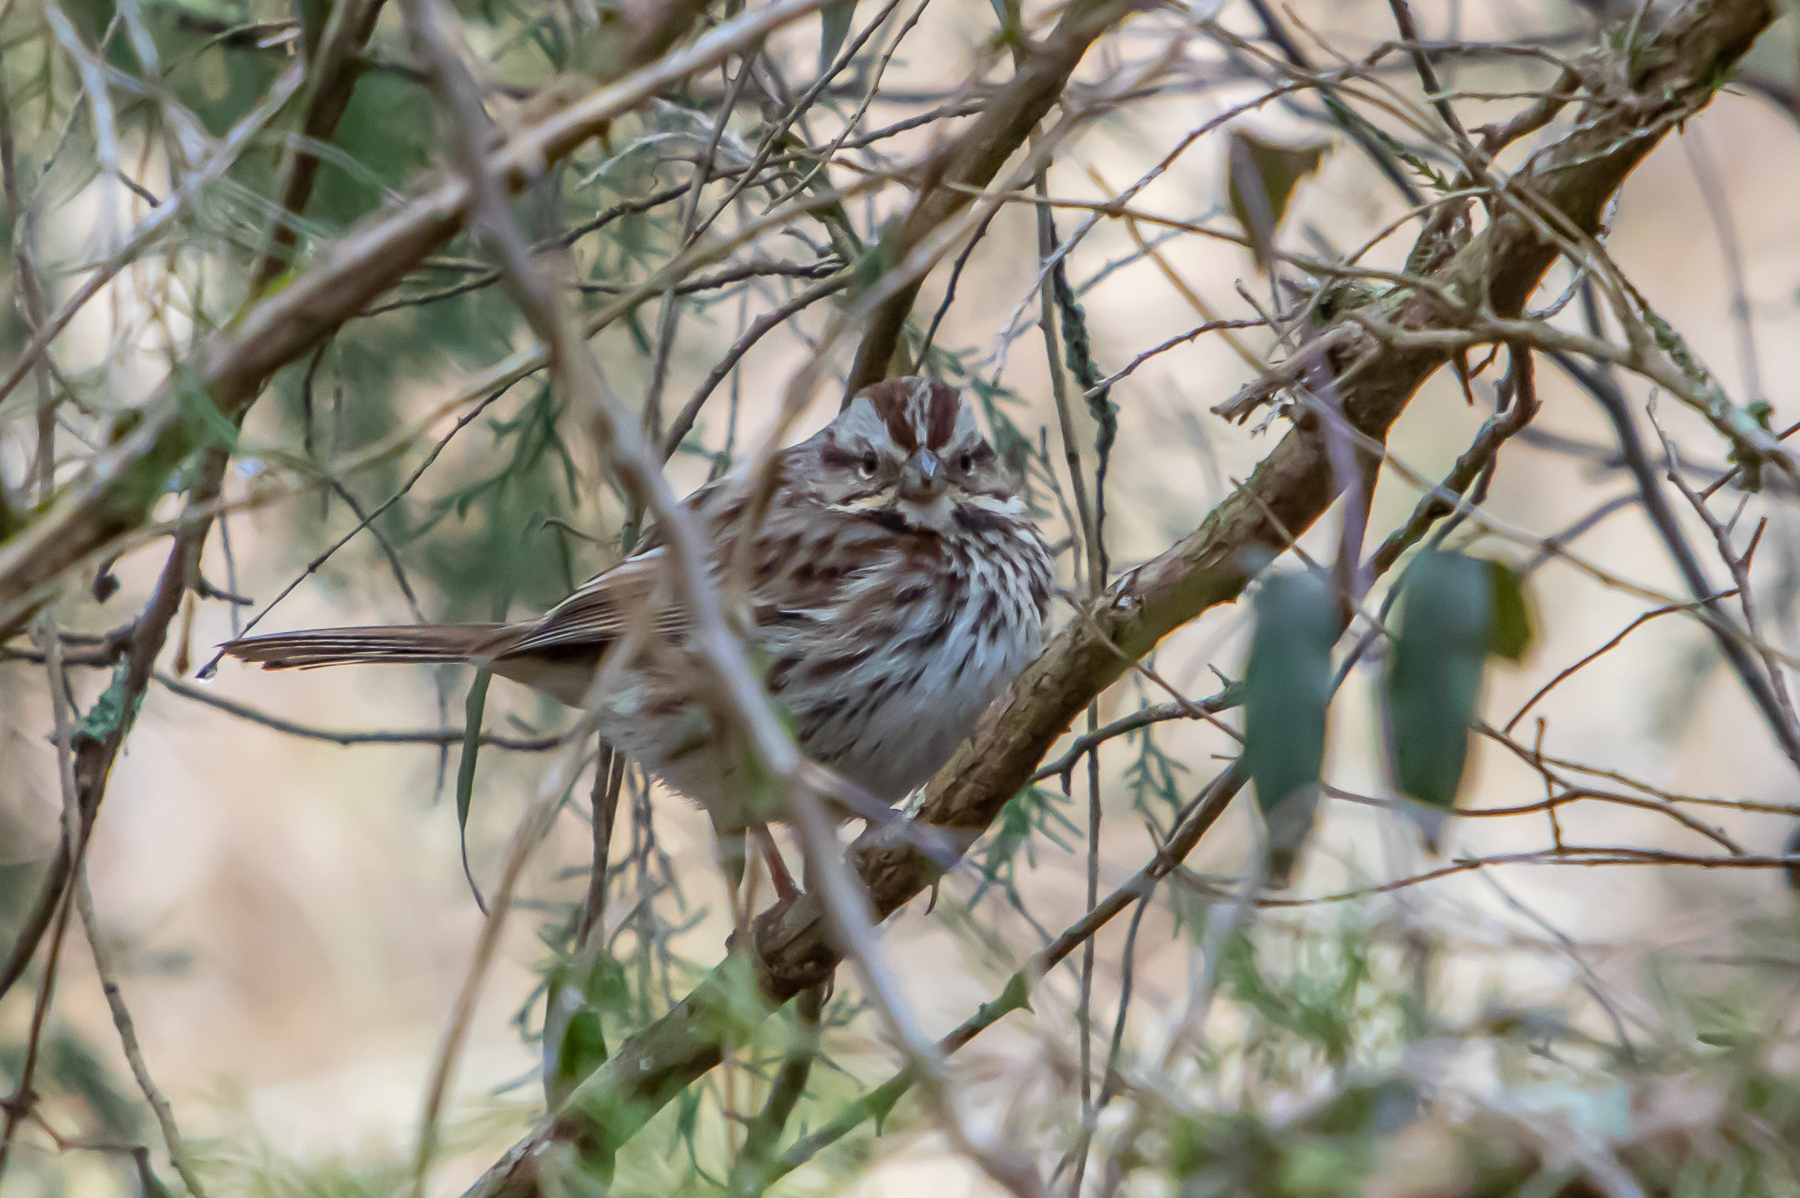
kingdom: Animalia
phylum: Chordata
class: Aves
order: Passeriformes
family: Passerellidae
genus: Melospiza
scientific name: Melospiza melodia
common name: Song sparrow
